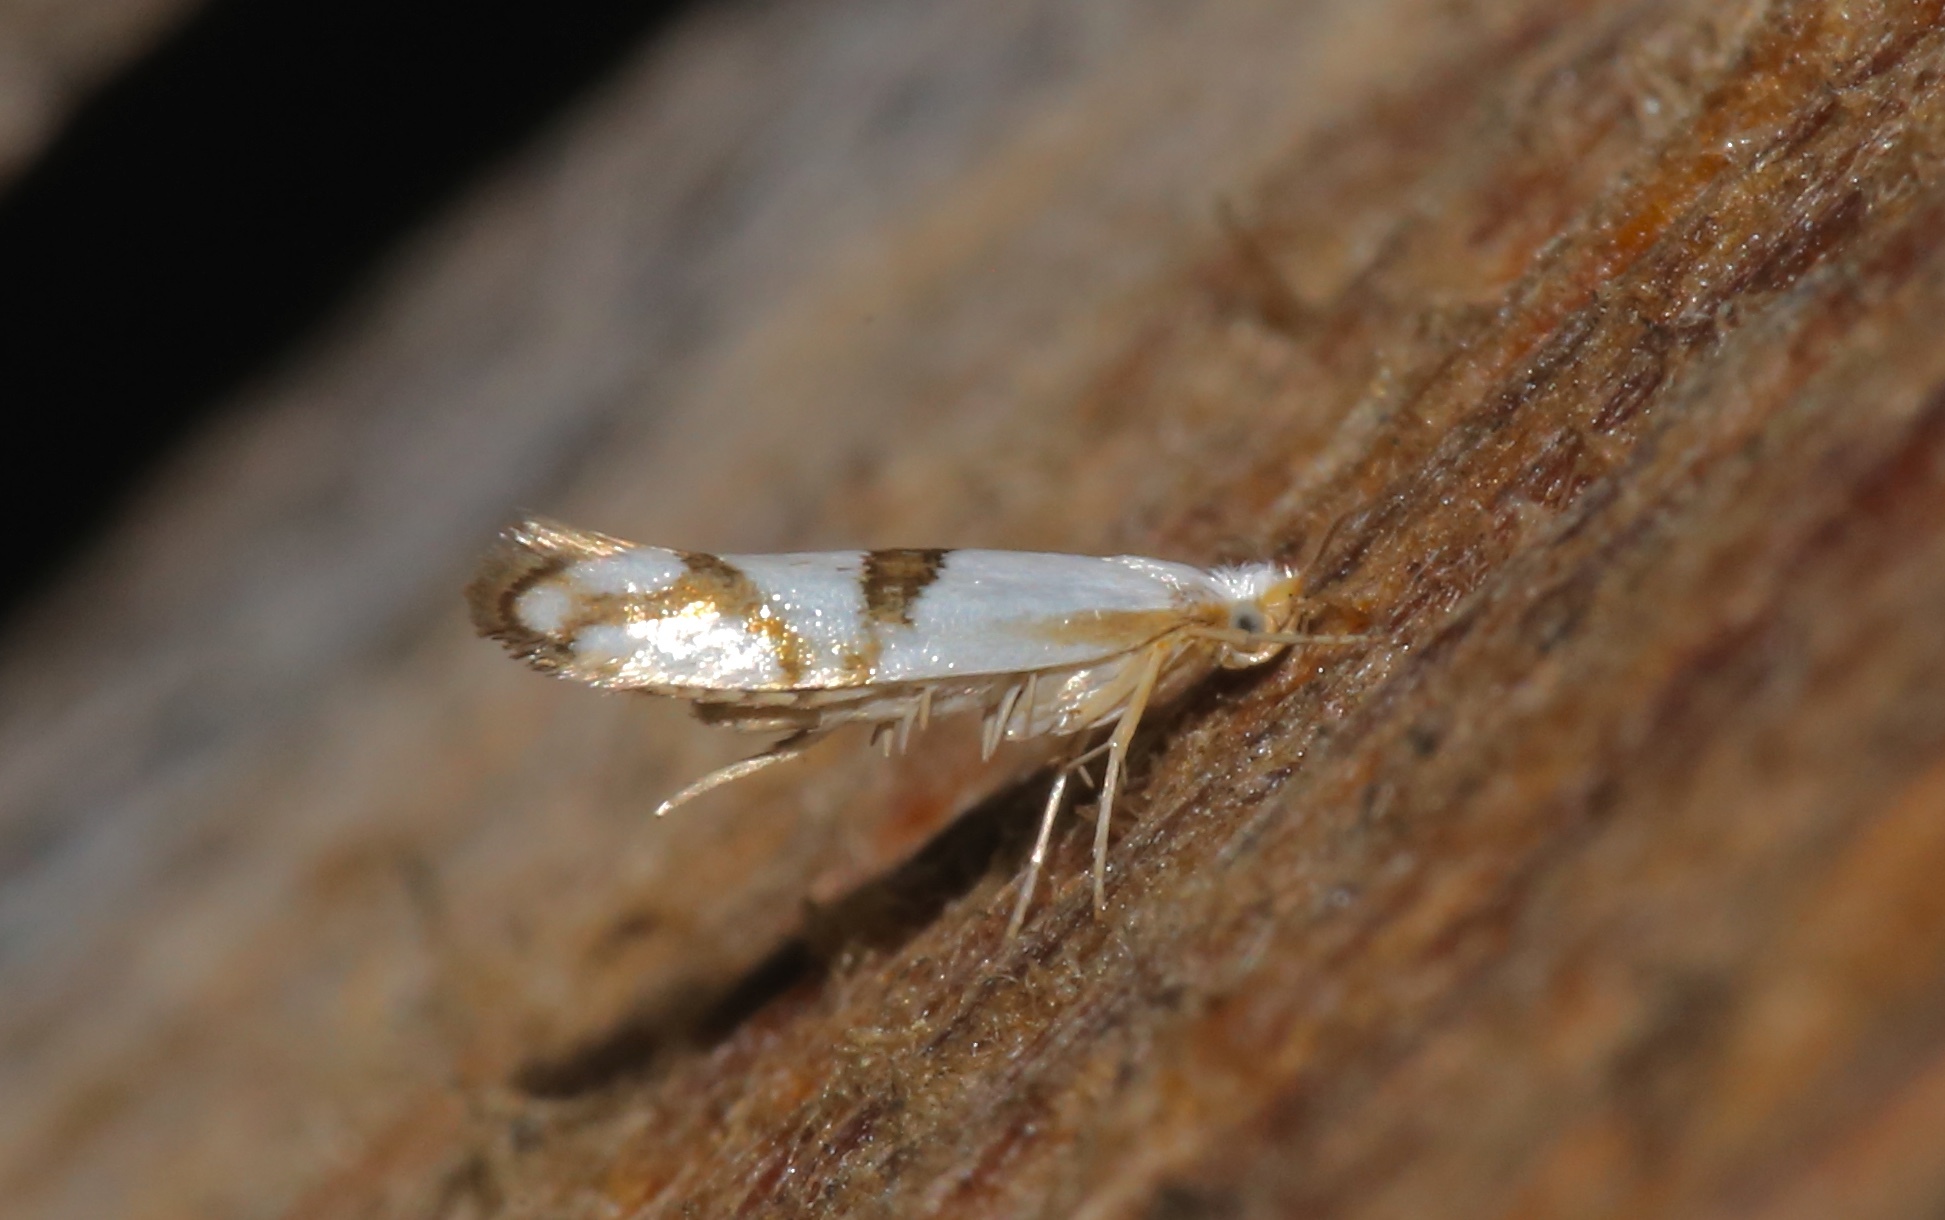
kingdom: Animalia
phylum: Arthropoda
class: Insecta
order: Lepidoptera
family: Argyresthiidae
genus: Argyresthia
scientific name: Argyresthia oreasella
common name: Cherry shoot borer moth
